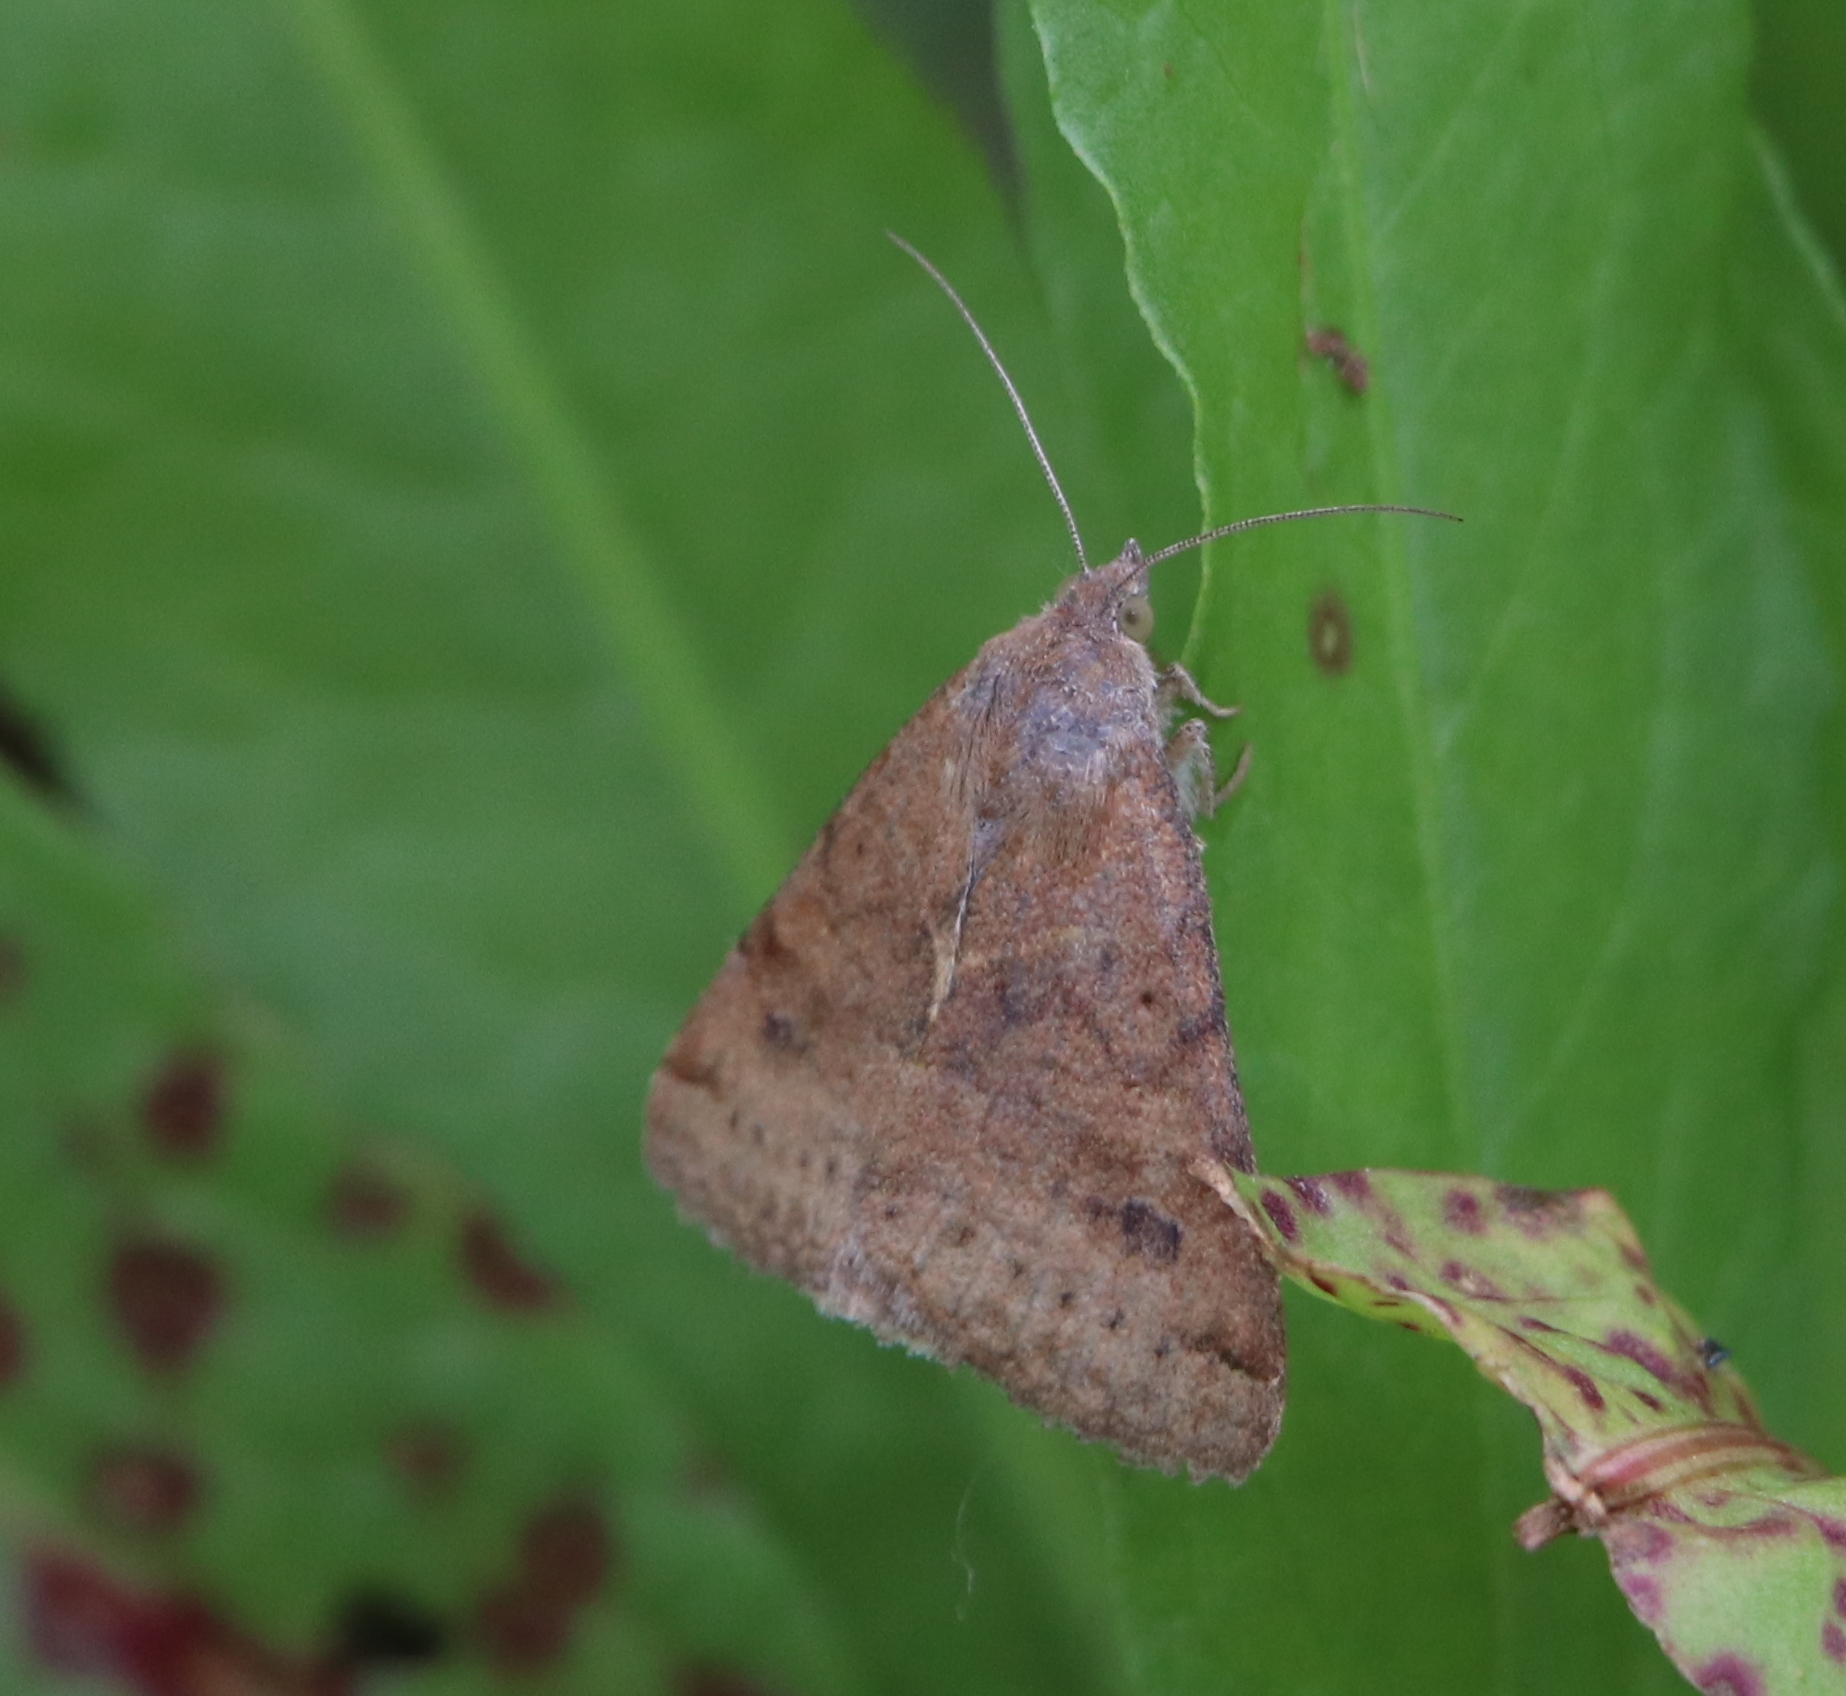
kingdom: Animalia
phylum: Arthropoda
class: Insecta
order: Lepidoptera
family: Erebidae
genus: Caenurgina
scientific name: Caenurgina erechtea
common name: Forage looper moth
